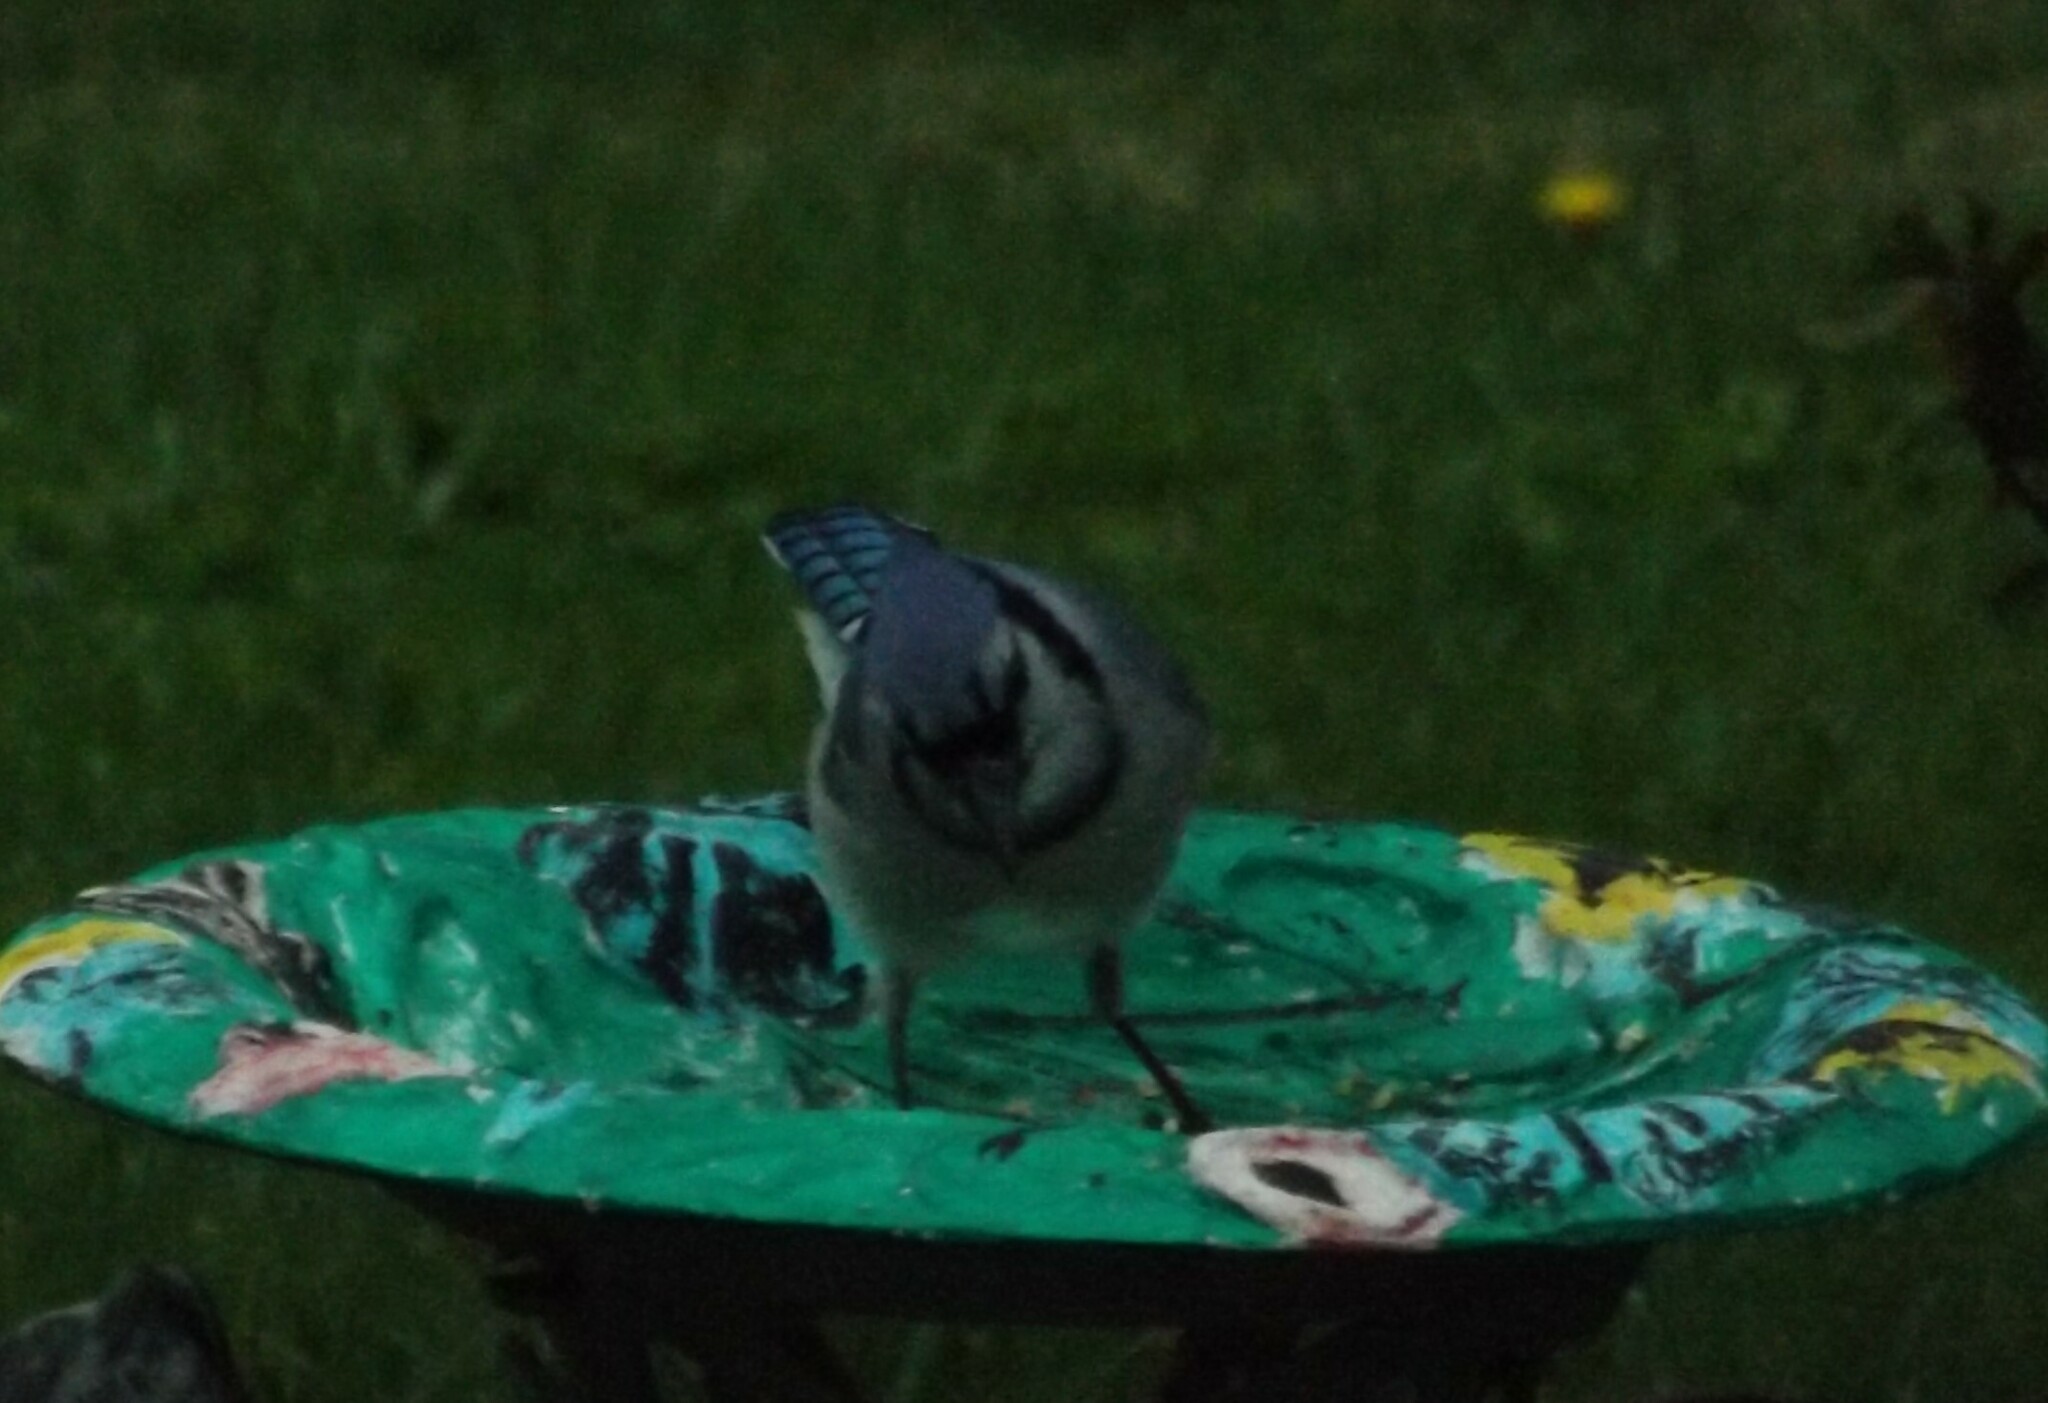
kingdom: Animalia
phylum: Chordata
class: Aves
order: Passeriformes
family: Corvidae
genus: Cyanocitta
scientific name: Cyanocitta cristata
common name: Blue jay
